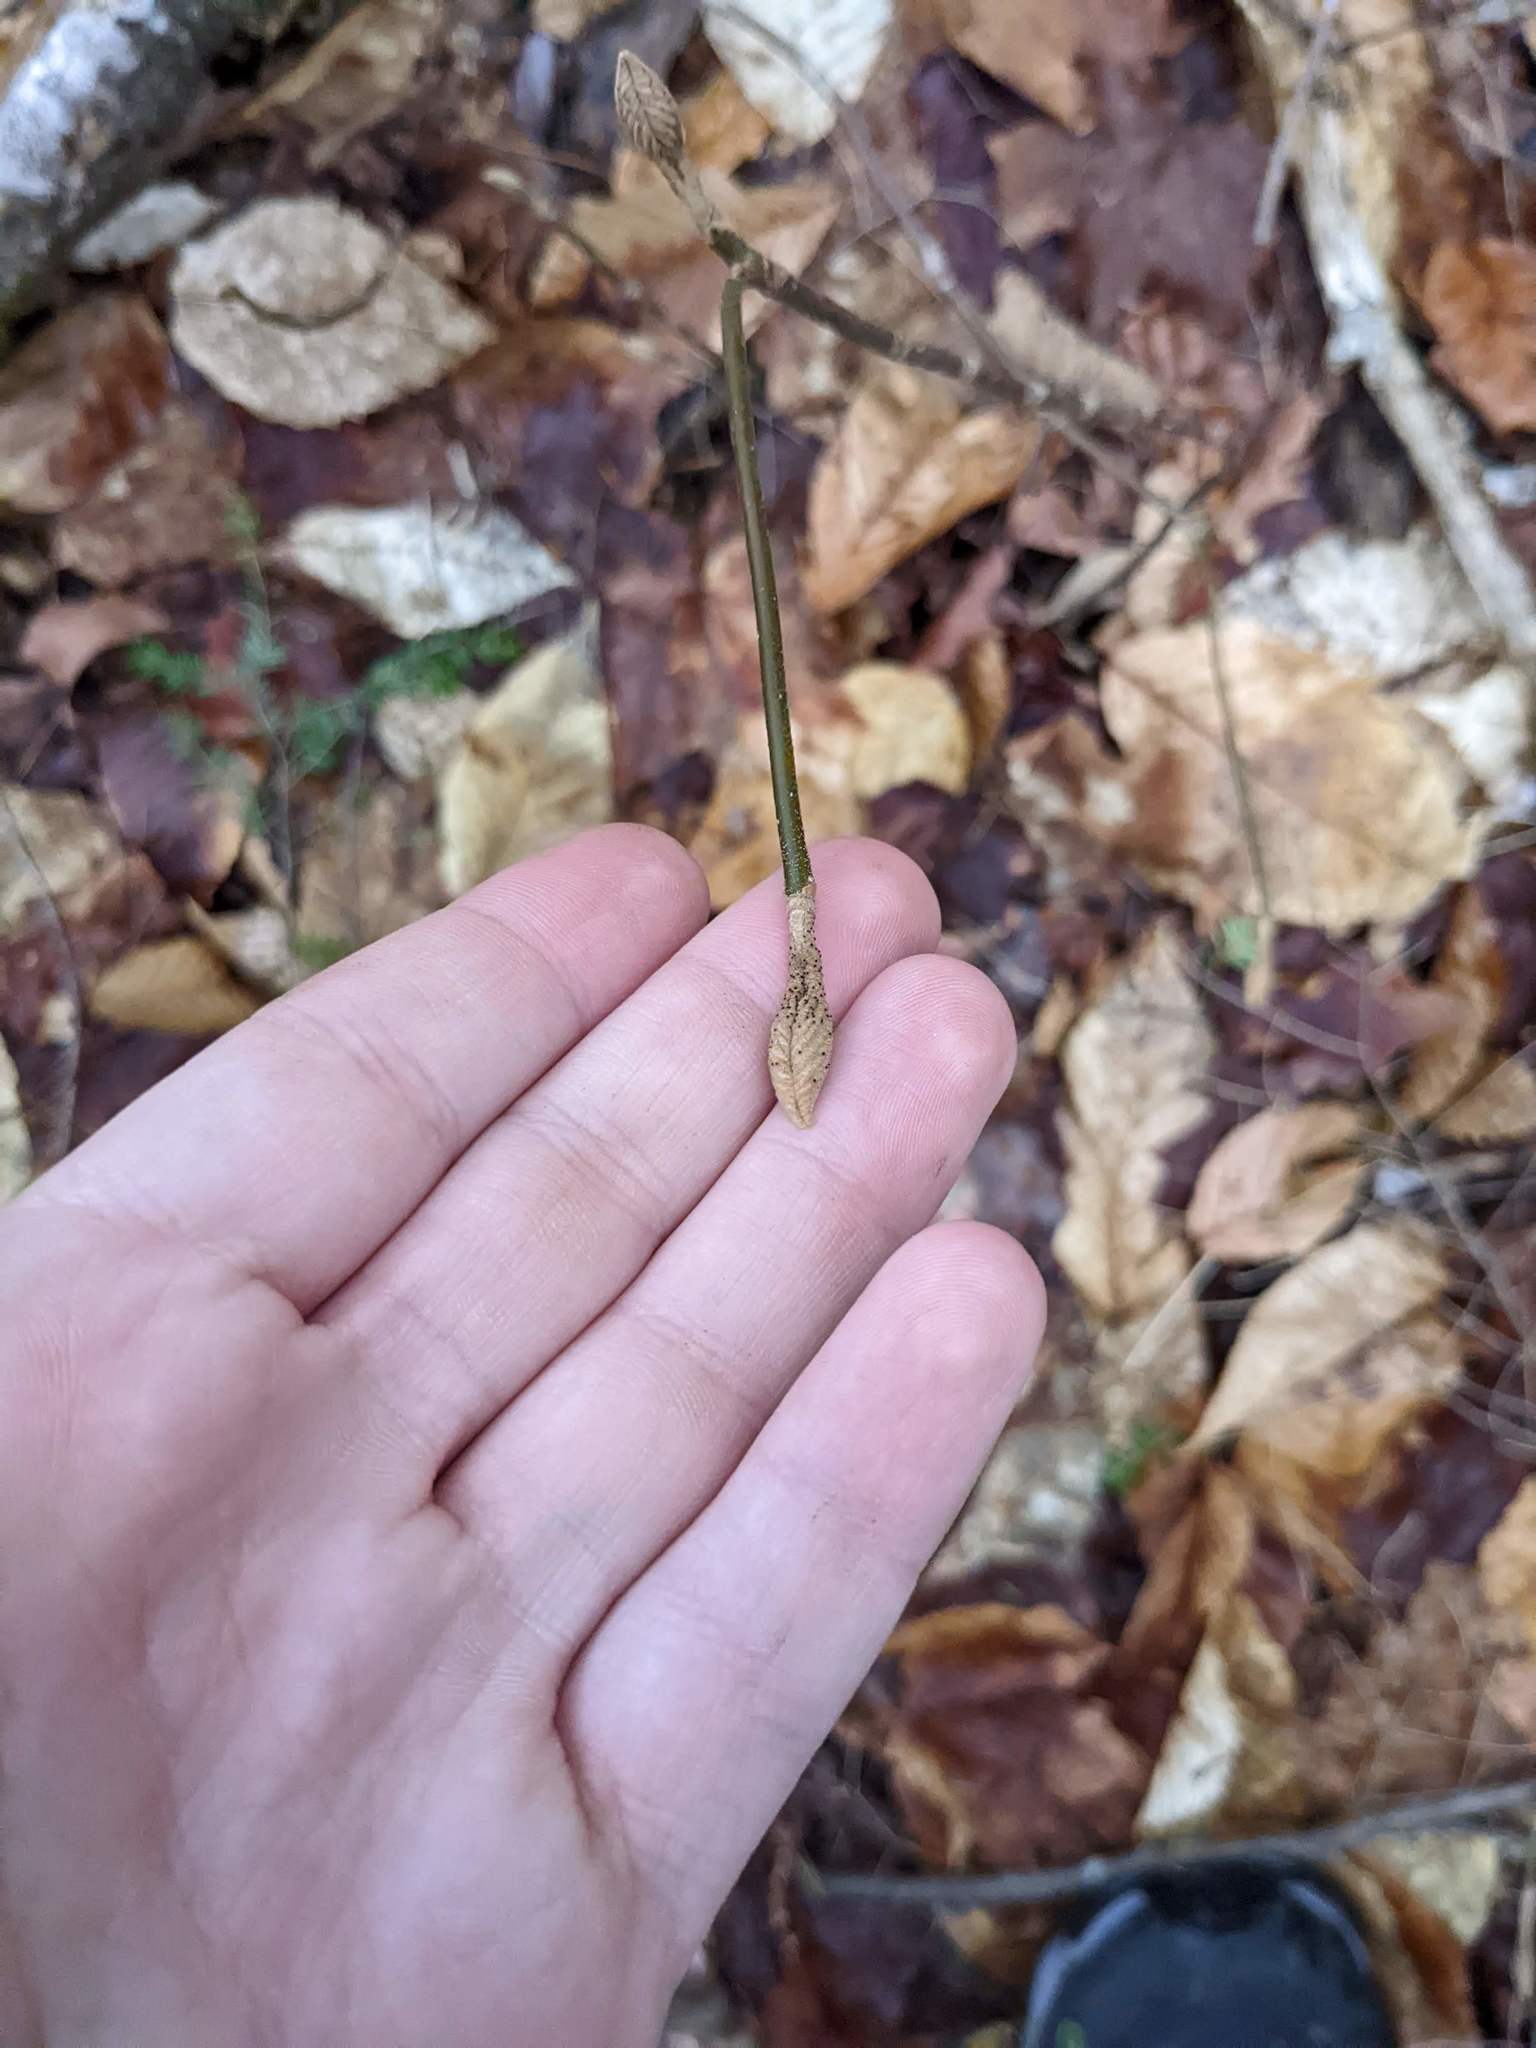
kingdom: Plantae
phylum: Tracheophyta
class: Magnoliopsida
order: Dipsacales
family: Viburnaceae
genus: Viburnum
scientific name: Viburnum lantanoides
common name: Hobblebush
